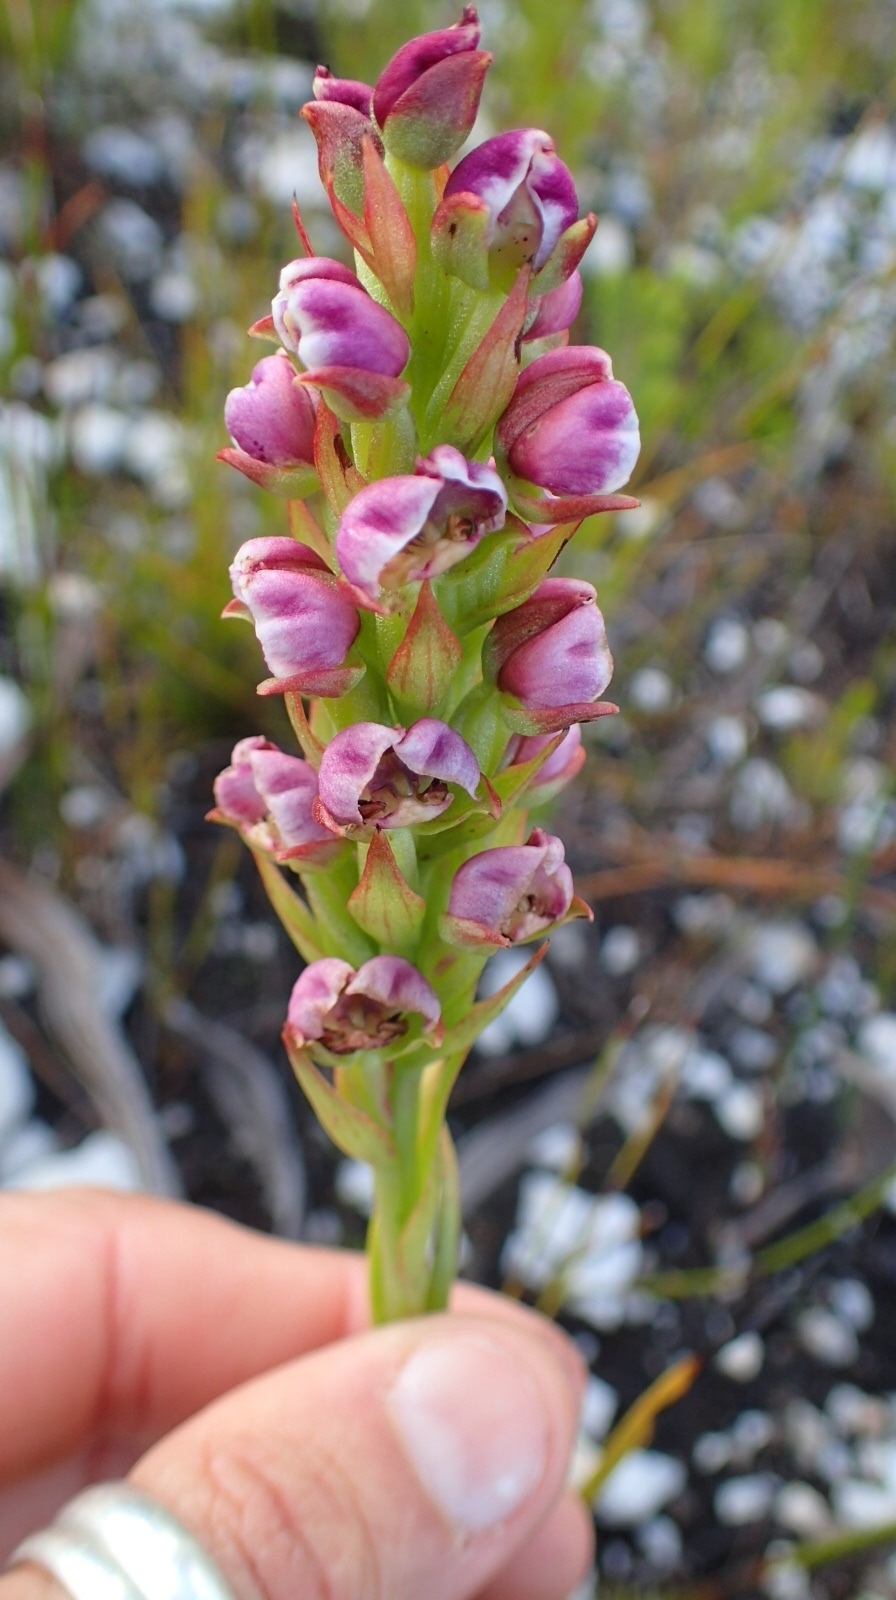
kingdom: Plantae
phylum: Tracheophyta
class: Liliopsida
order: Asparagales
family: Orchidaceae
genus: Evotella
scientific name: Evotella carnosa
